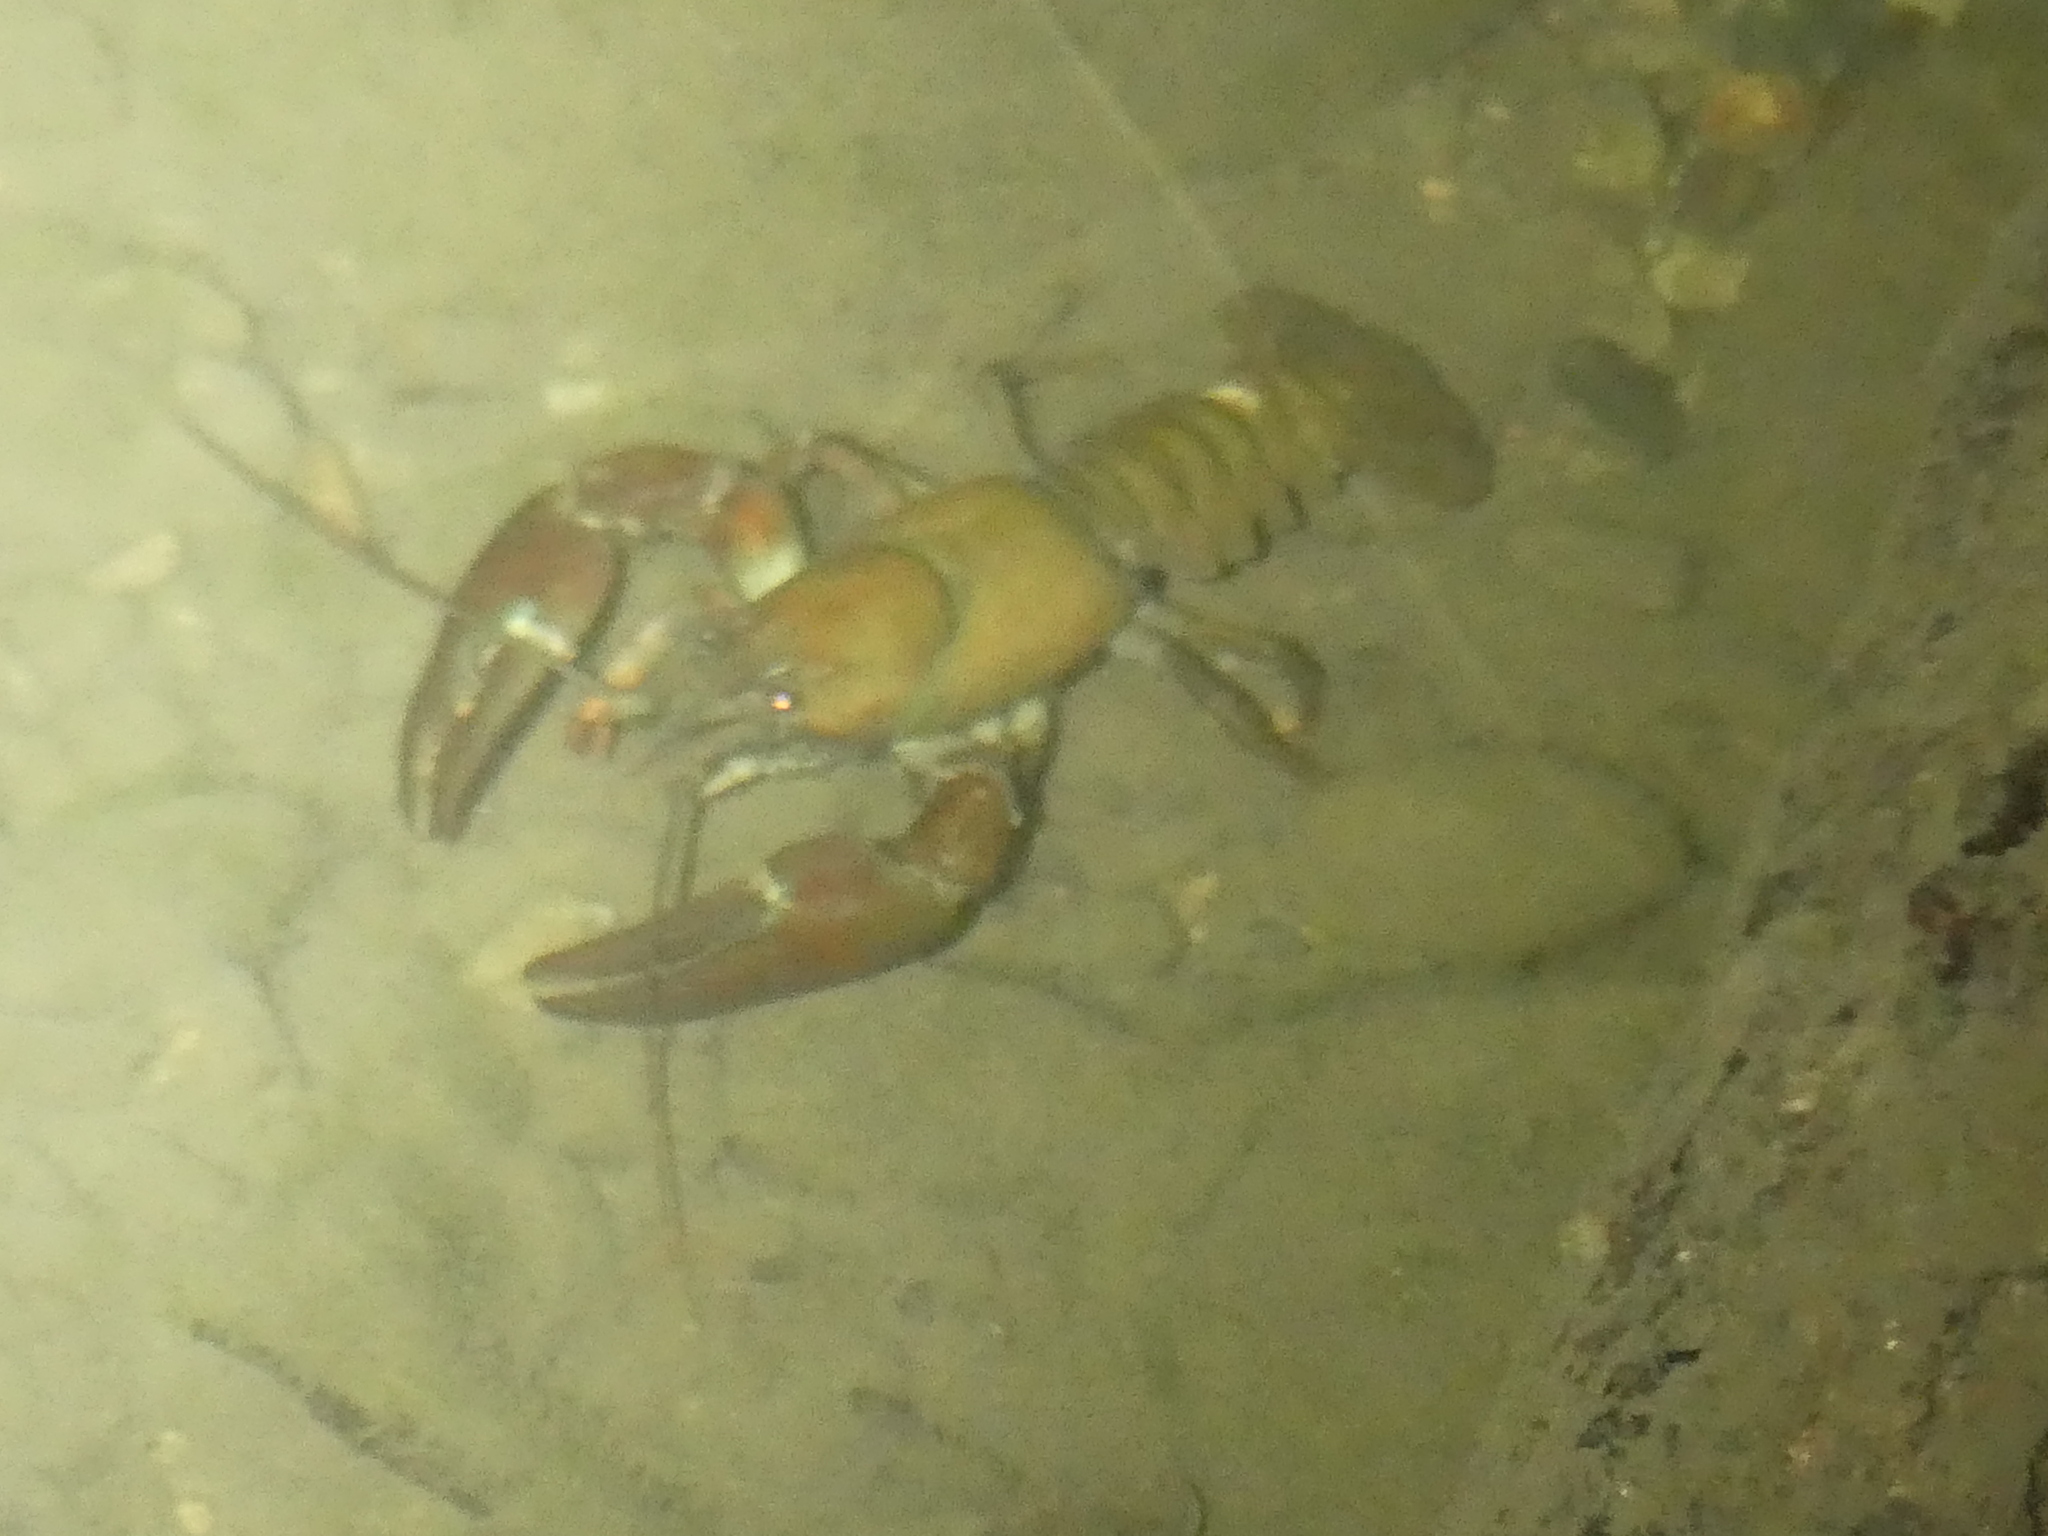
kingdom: Animalia
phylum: Arthropoda
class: Malacostraca
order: Decapoda
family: Astacidae
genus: Pacifastacus
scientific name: Pacifastacus leniusculus
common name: Signal crayfish
